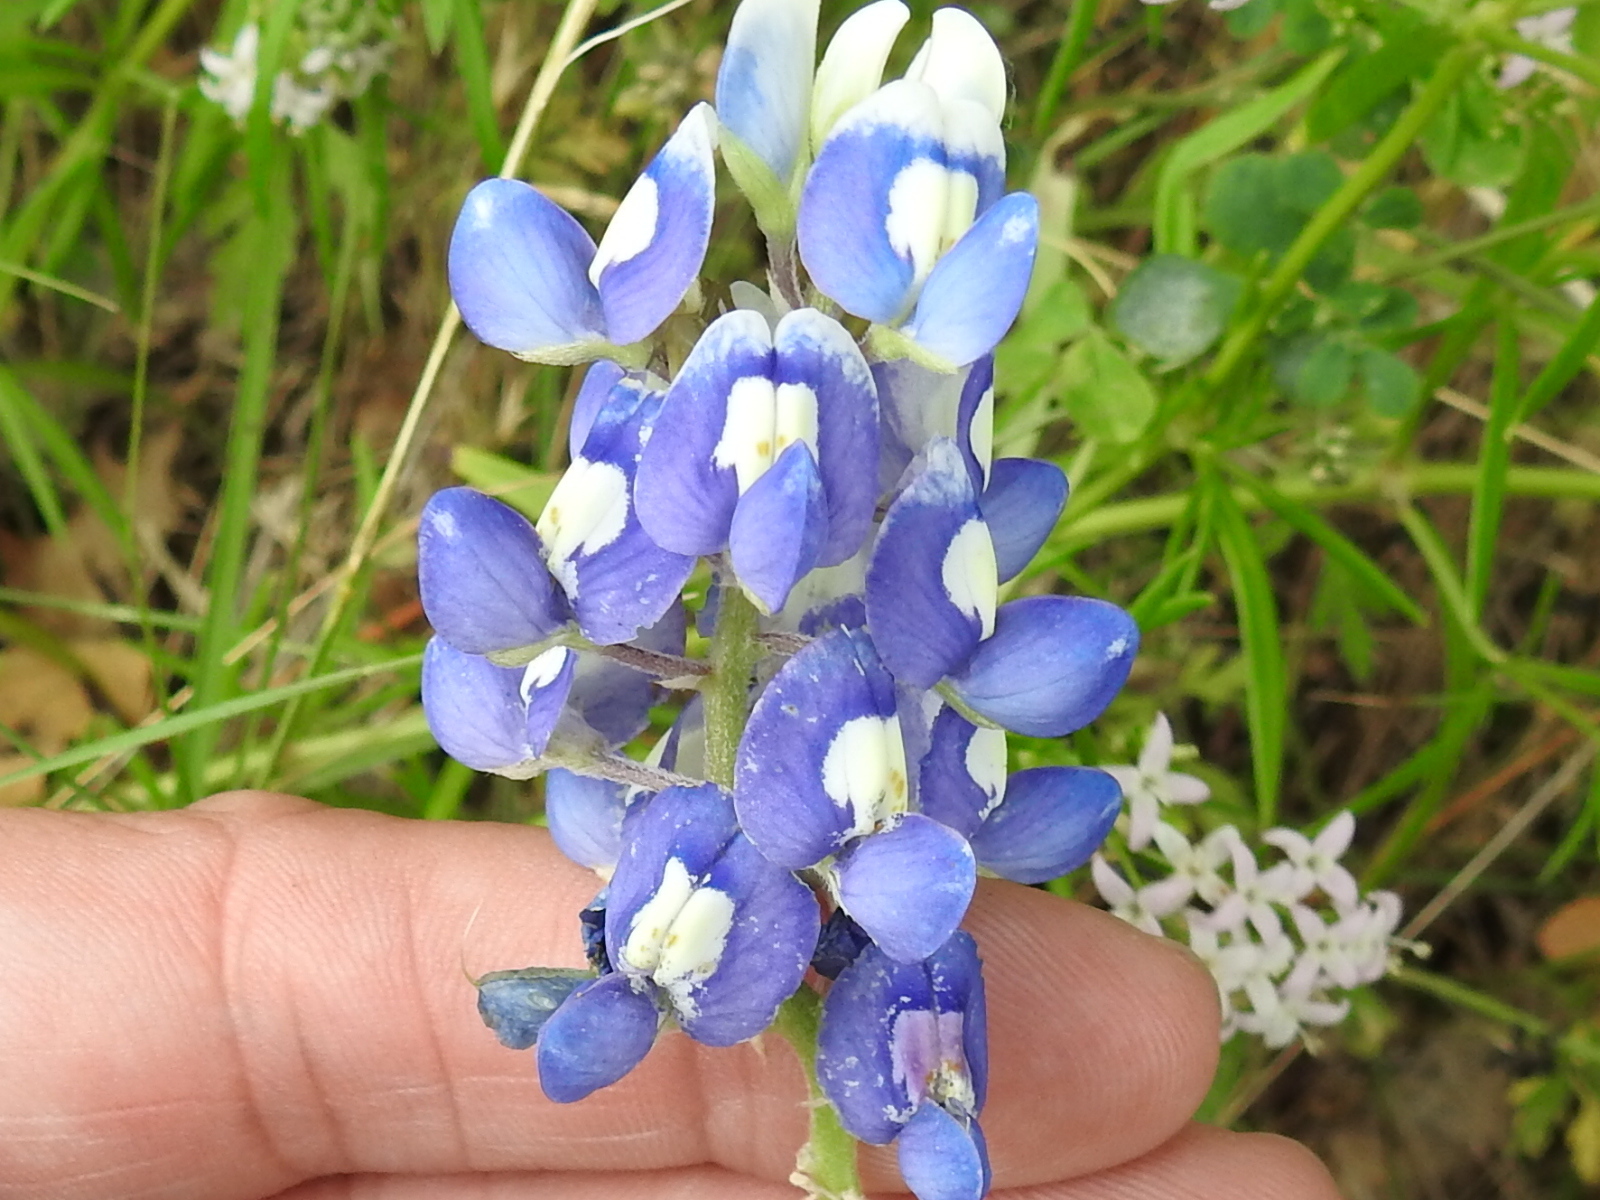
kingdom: Plantae
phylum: Tracheophyta
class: Magnoliopsida
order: Fabales
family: Fabaceae
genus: Lupinus
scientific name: Lupinus texensis
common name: Texas bluebonnet
